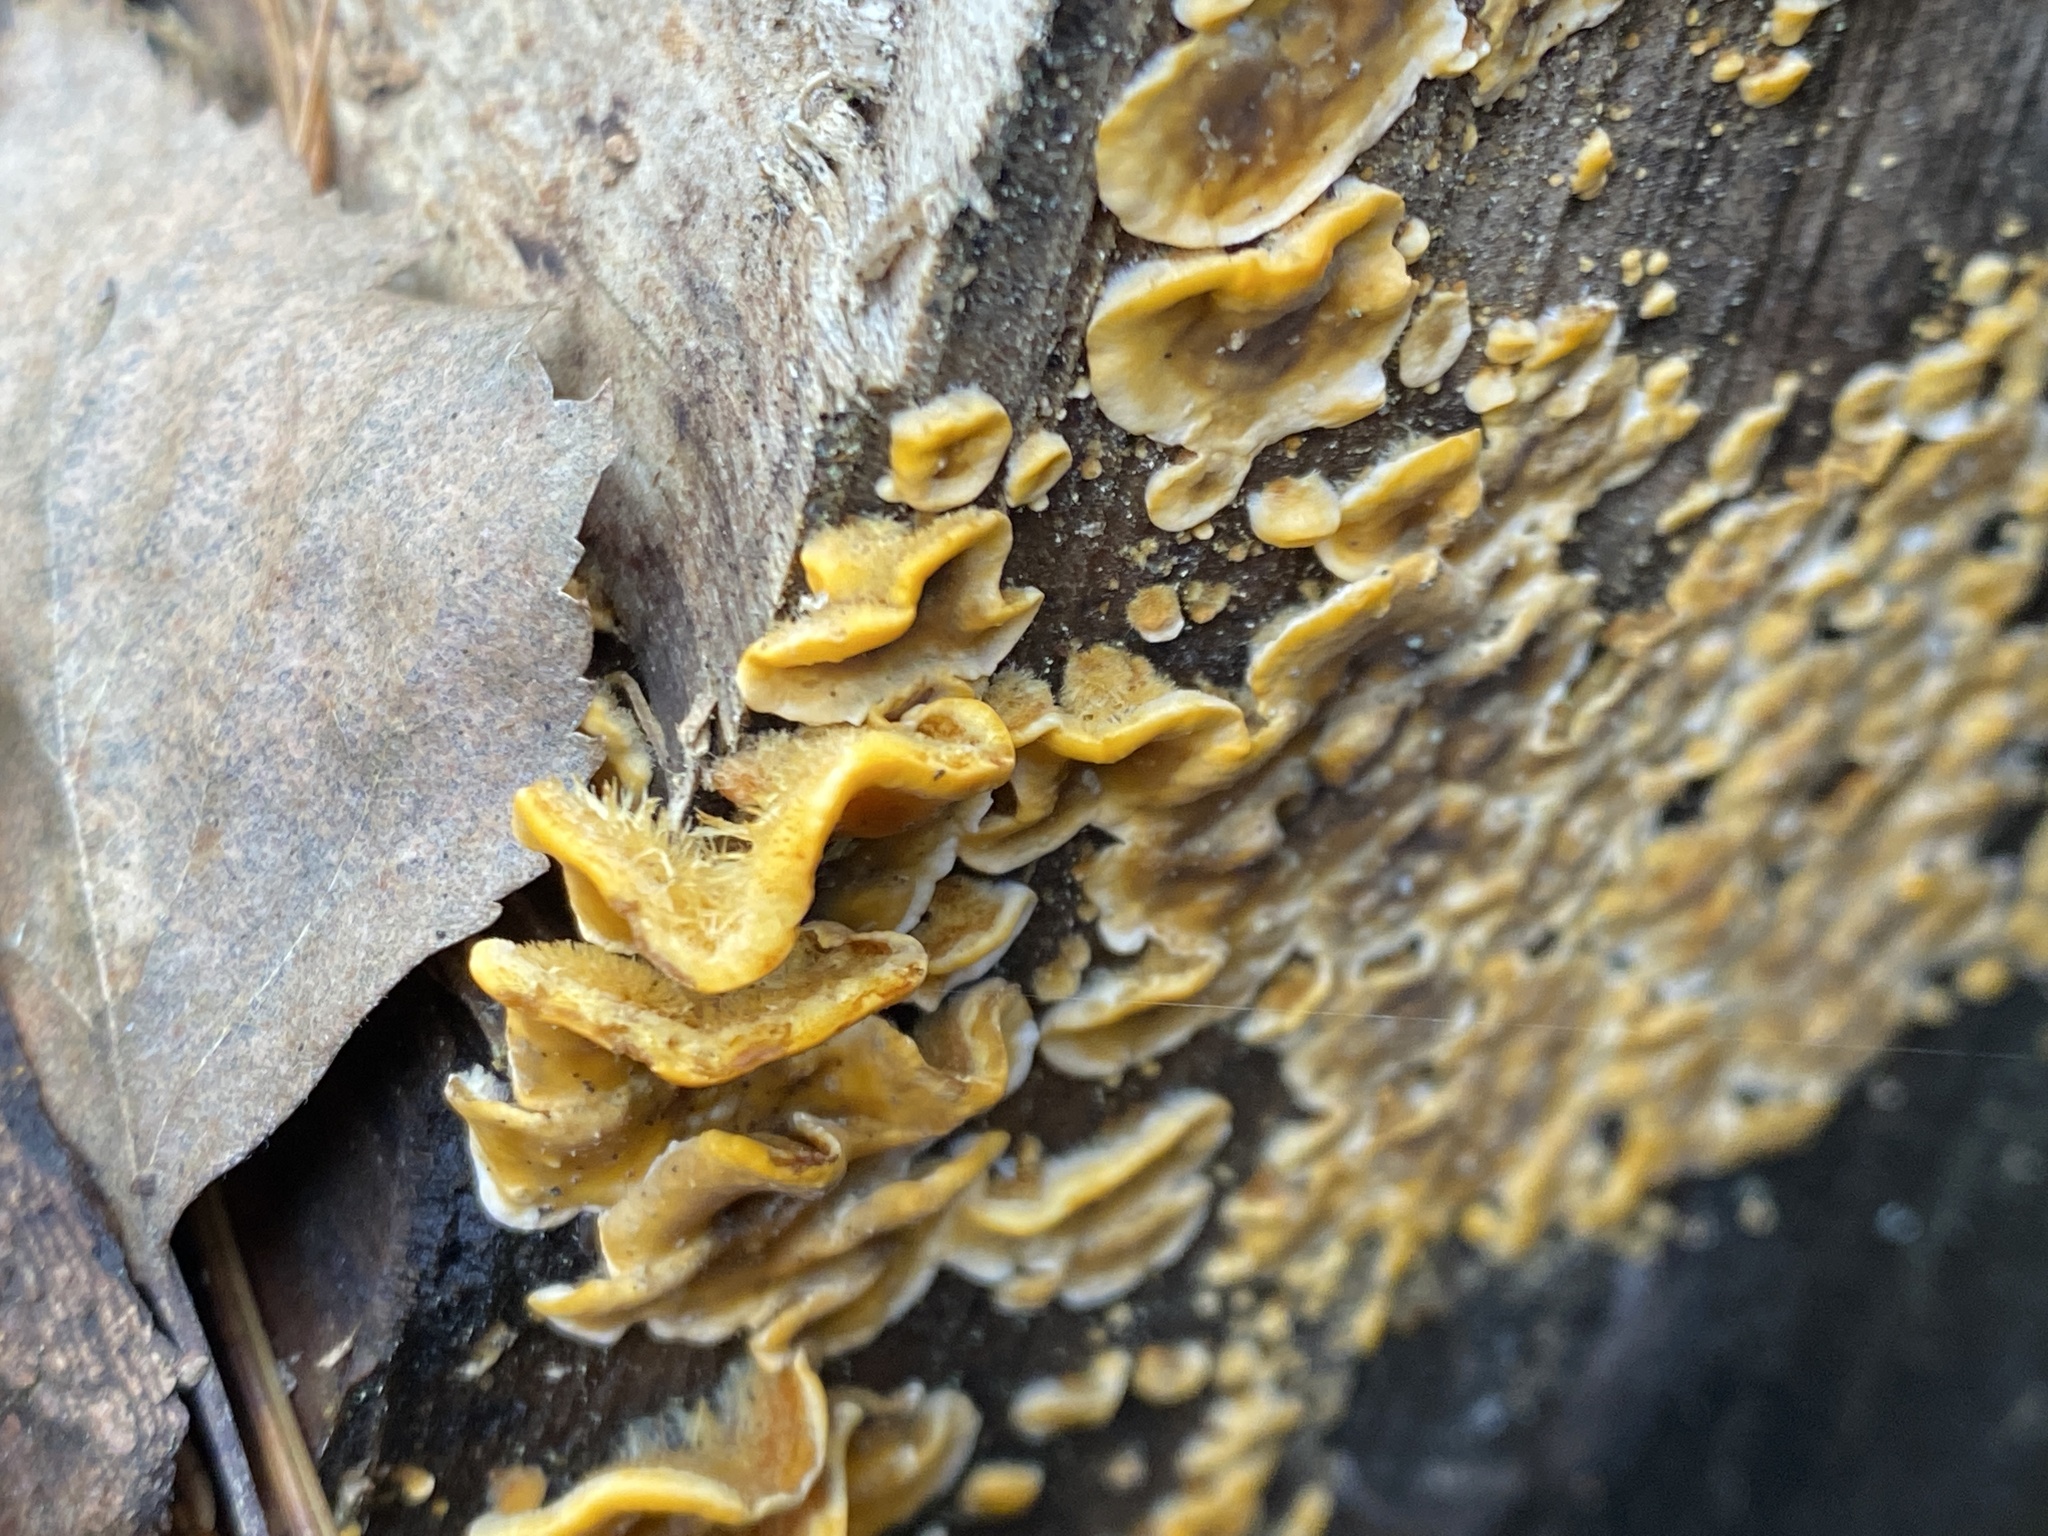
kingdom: Fungi
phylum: Basidiomycota
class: Agaricomycetes
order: Russulales
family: Stereaceae
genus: Stereum
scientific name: Stereum hirsutum
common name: Hairy curtain crust
